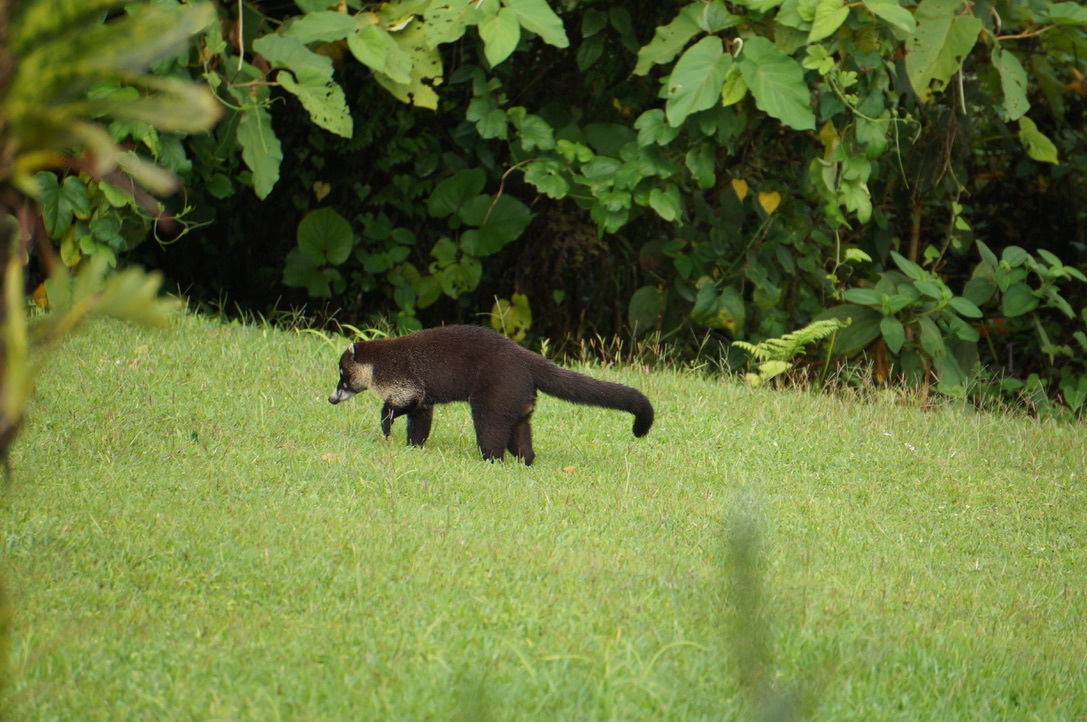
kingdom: Animalia
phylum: Chordata
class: Mammalia
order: Carnivora
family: Procyonidae
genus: Nasua
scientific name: Nasua narica
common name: White-nosed coati
